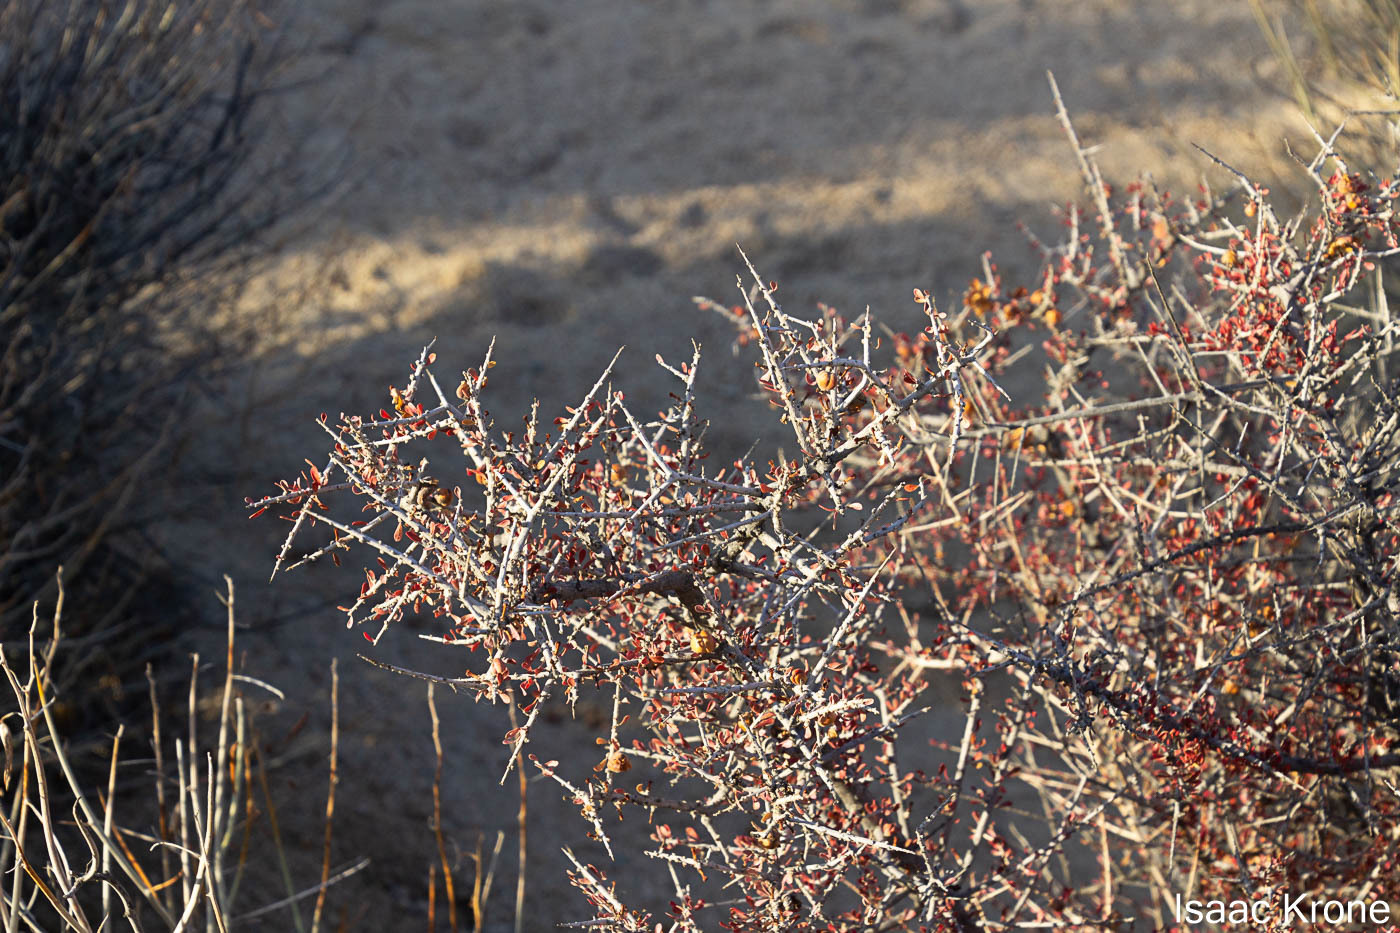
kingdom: Plantae
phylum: Tracheophyta
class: Magnoliopsida
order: Malpighiales
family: Picrodendraceae
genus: Tetracoccus
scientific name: Tetracoccus hallii
